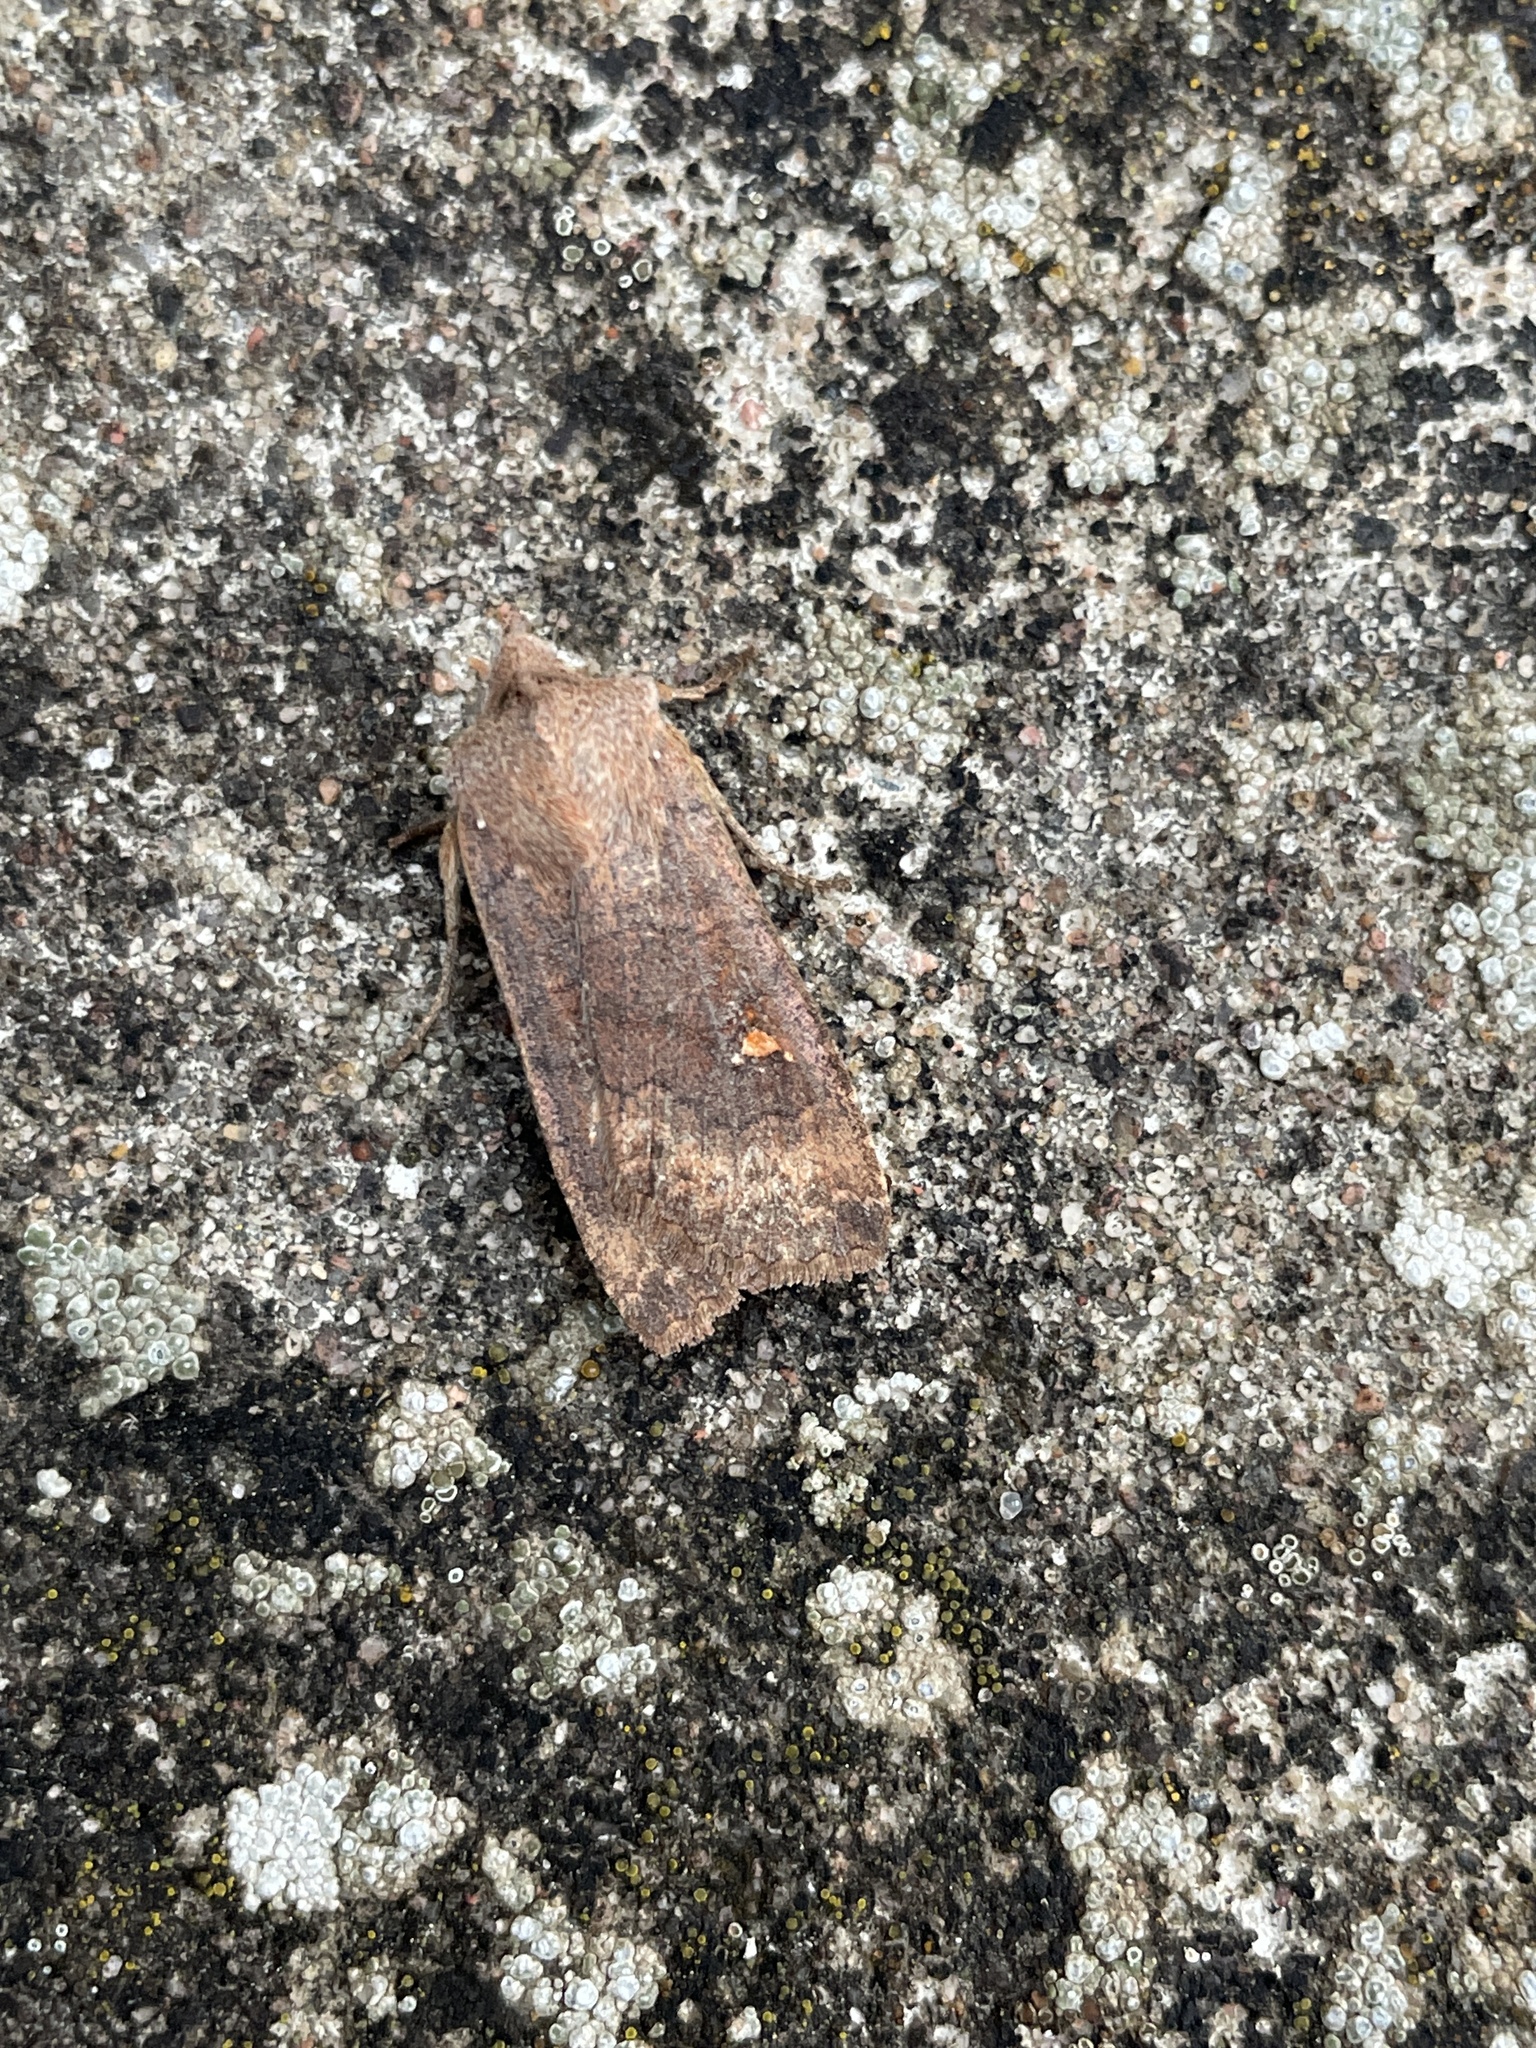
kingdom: Animalia
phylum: Arthropoda
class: Insecta
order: Lepidoptera
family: Noctuidae
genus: Eupsilia
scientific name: Eupsilia transversa
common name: Satellite
